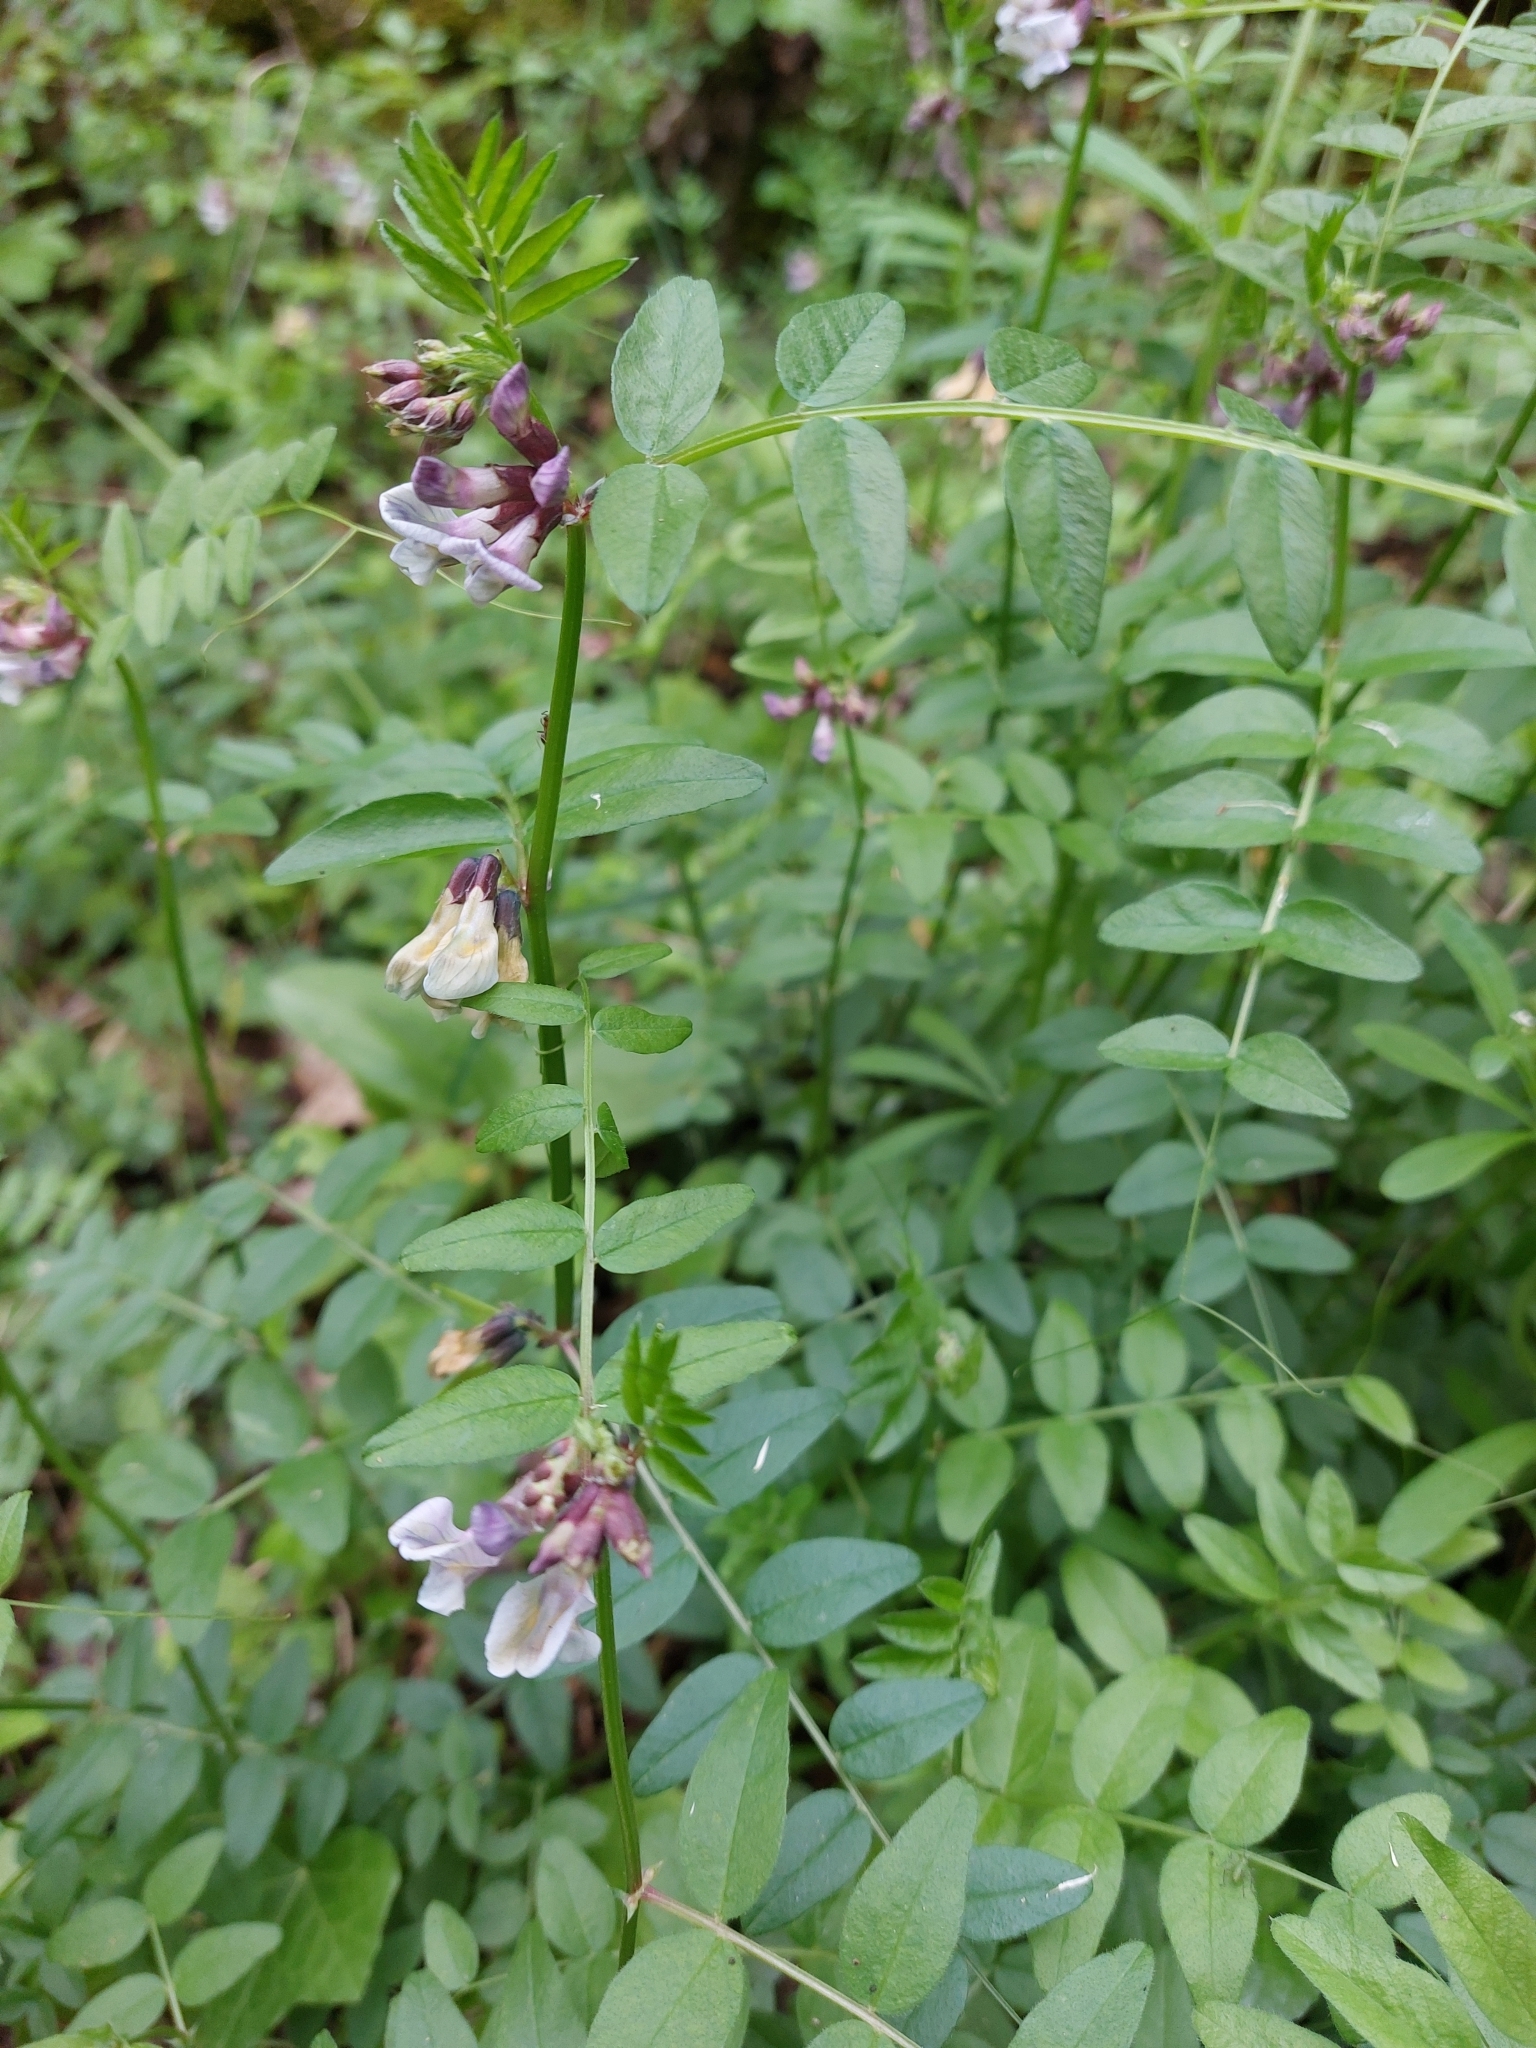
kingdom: Plantae
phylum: Tracheophyta
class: Magnoliopsida
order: Fabales
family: Fabaceae
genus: Vicia
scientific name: Vicia sepium
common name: Bush vetch
